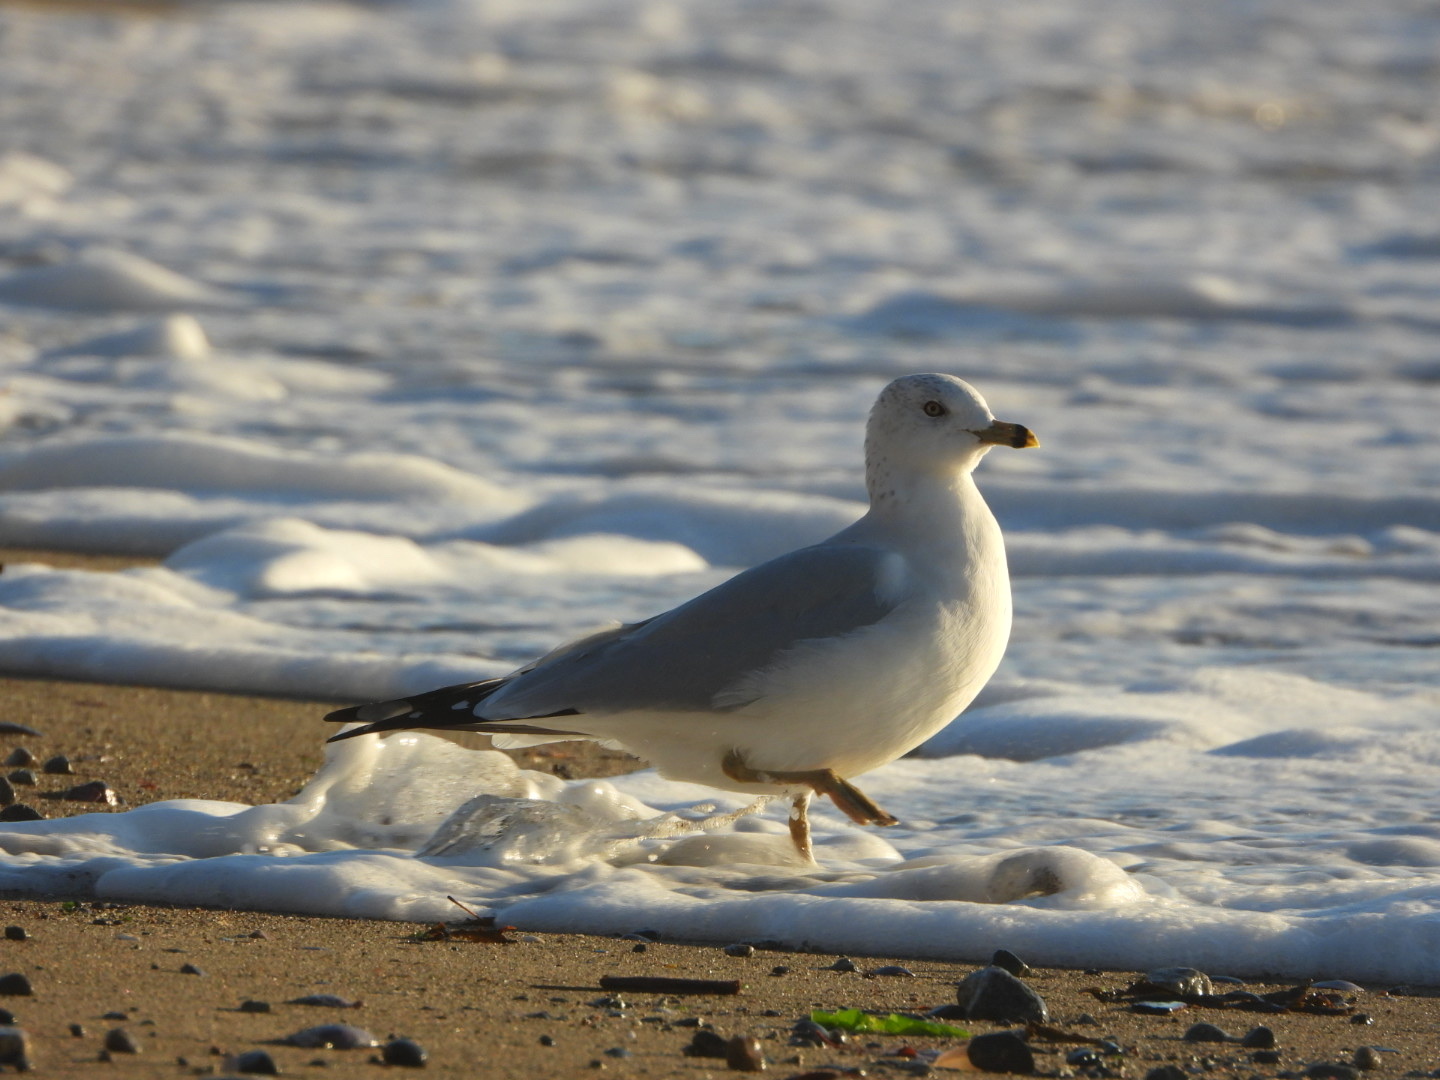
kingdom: Animalia
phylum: Chordata
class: Aves
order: Charadriiformes
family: Laridae
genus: Larus
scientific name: Larus delawarensis
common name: Ring-billed gull
